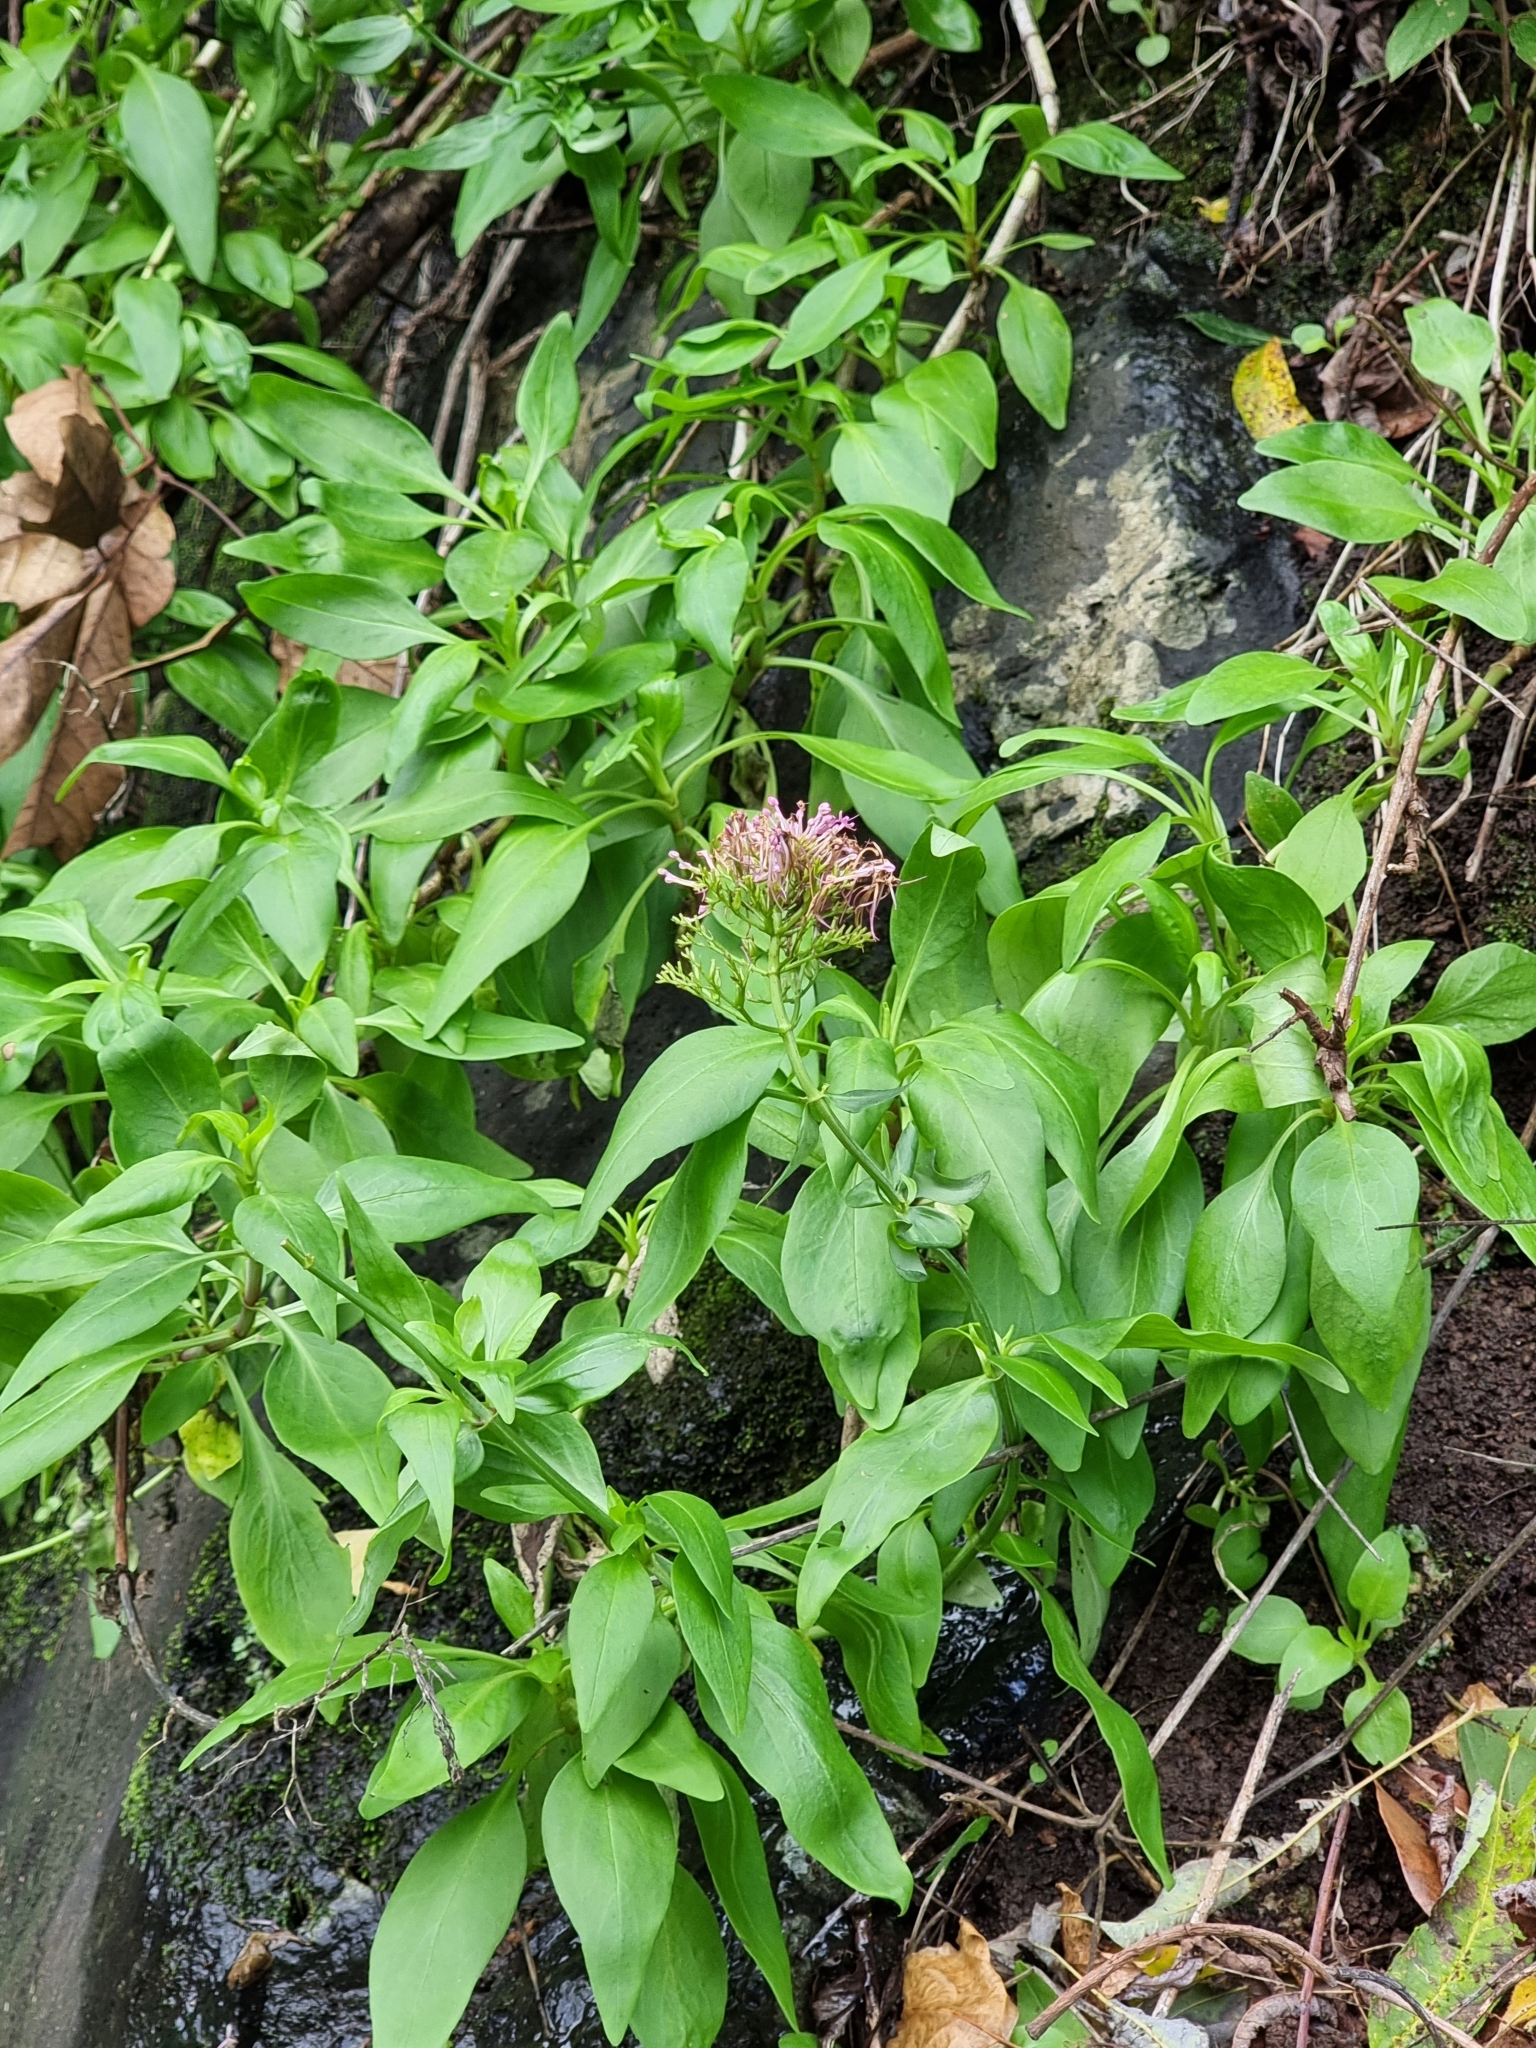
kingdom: Plantae
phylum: Tracheophyta
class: Magnoliopsida
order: Dipsacales
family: Caprifoliaceae
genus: Centranthus
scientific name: Centranthus ruber
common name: Red valerian
